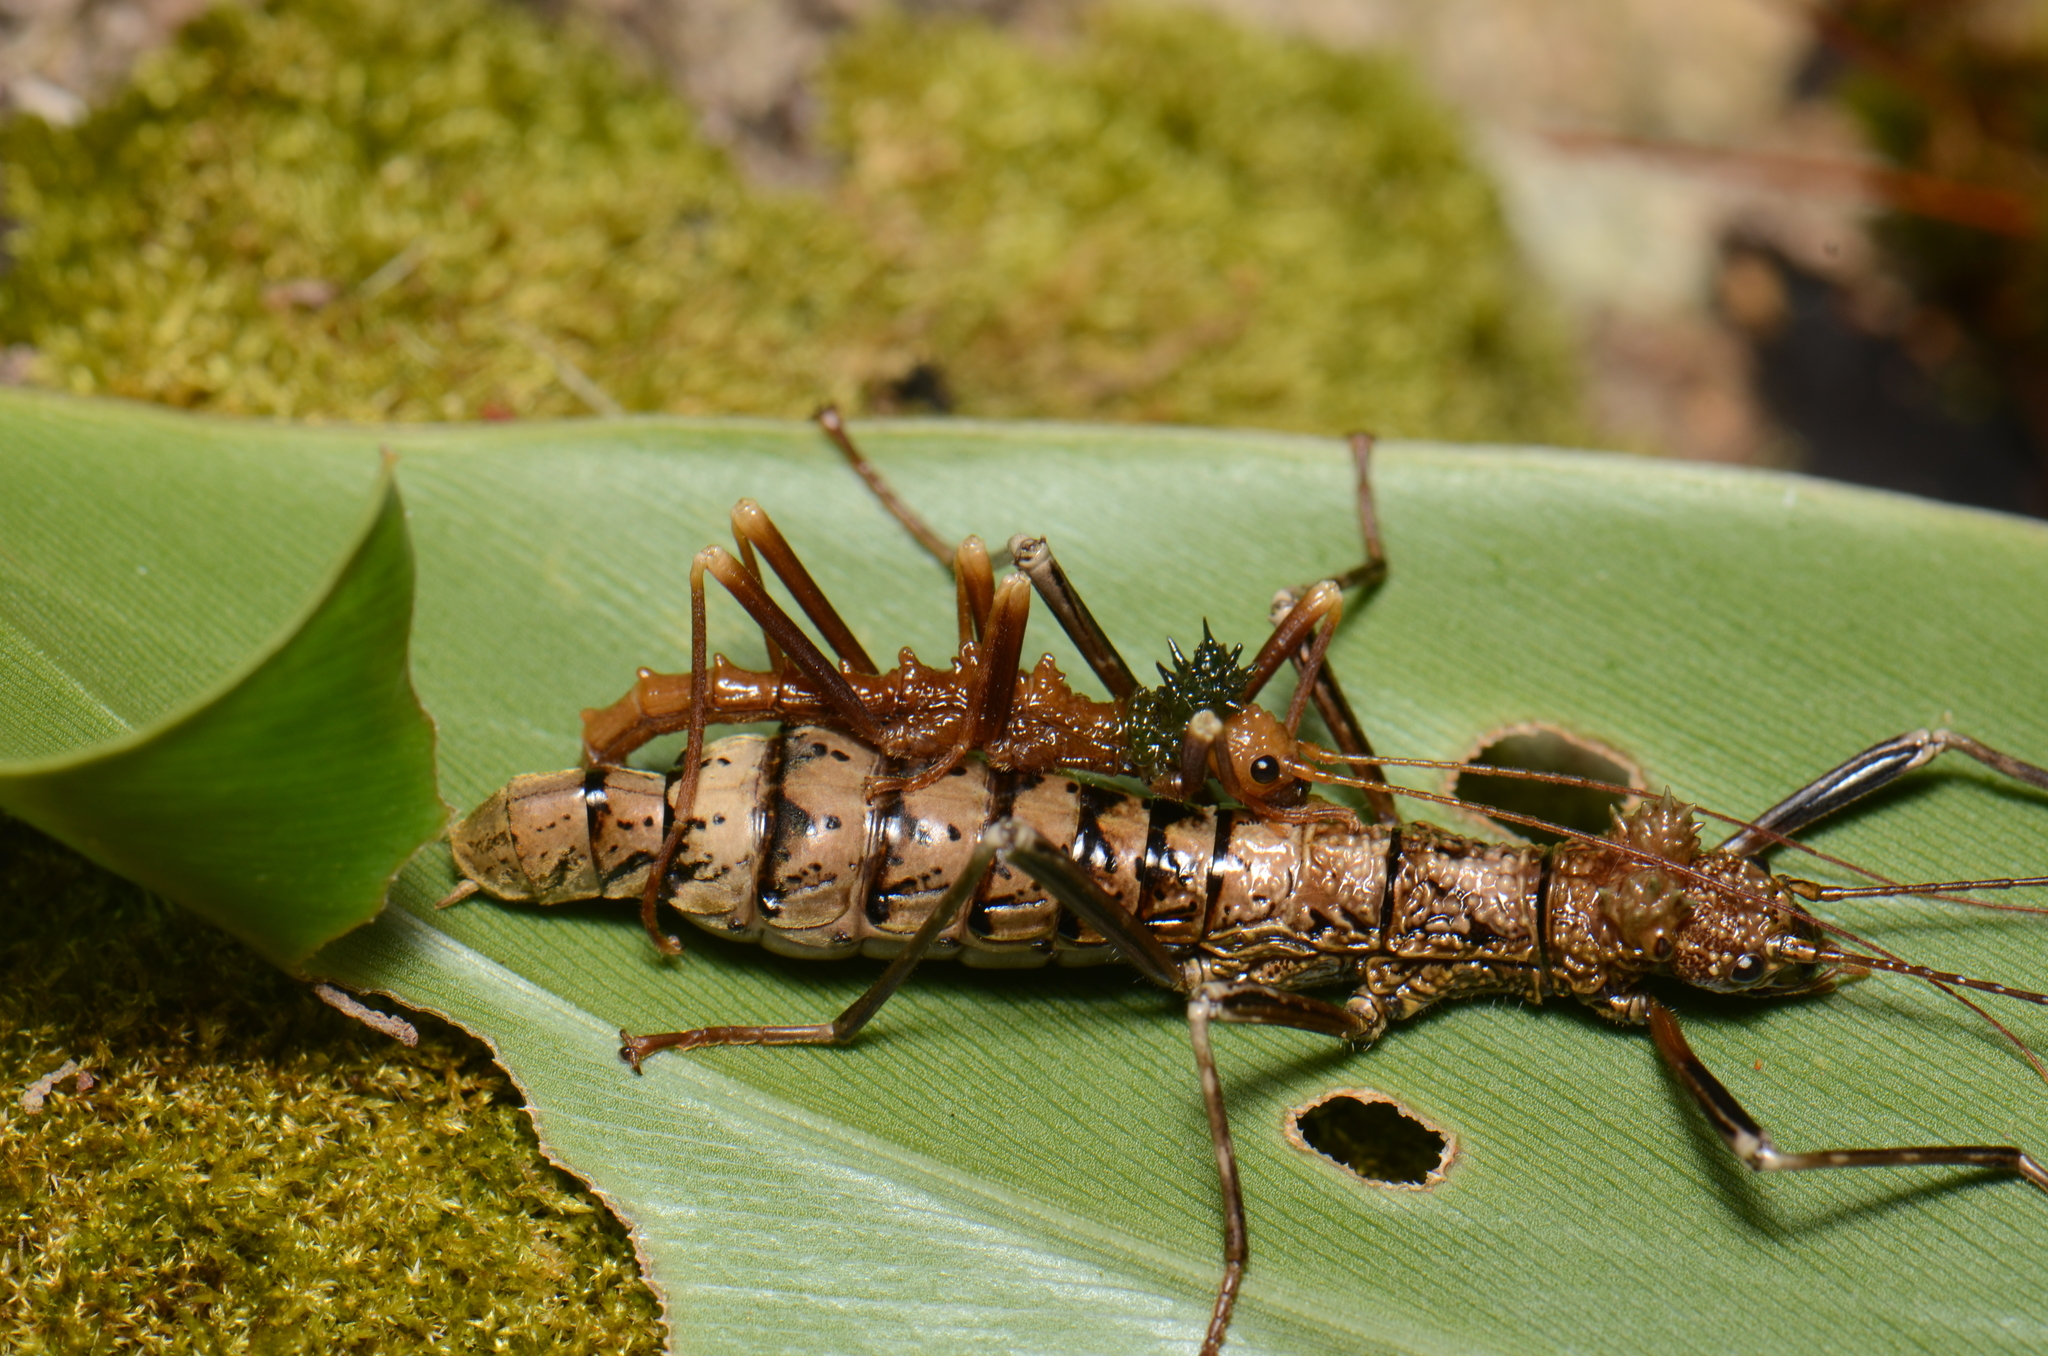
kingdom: Animalia
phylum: Arthropoda
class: Insecta
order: Phasmida
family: Aschiphasmatidae
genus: Ommatopseudes
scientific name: Ommatopseudes jalii
